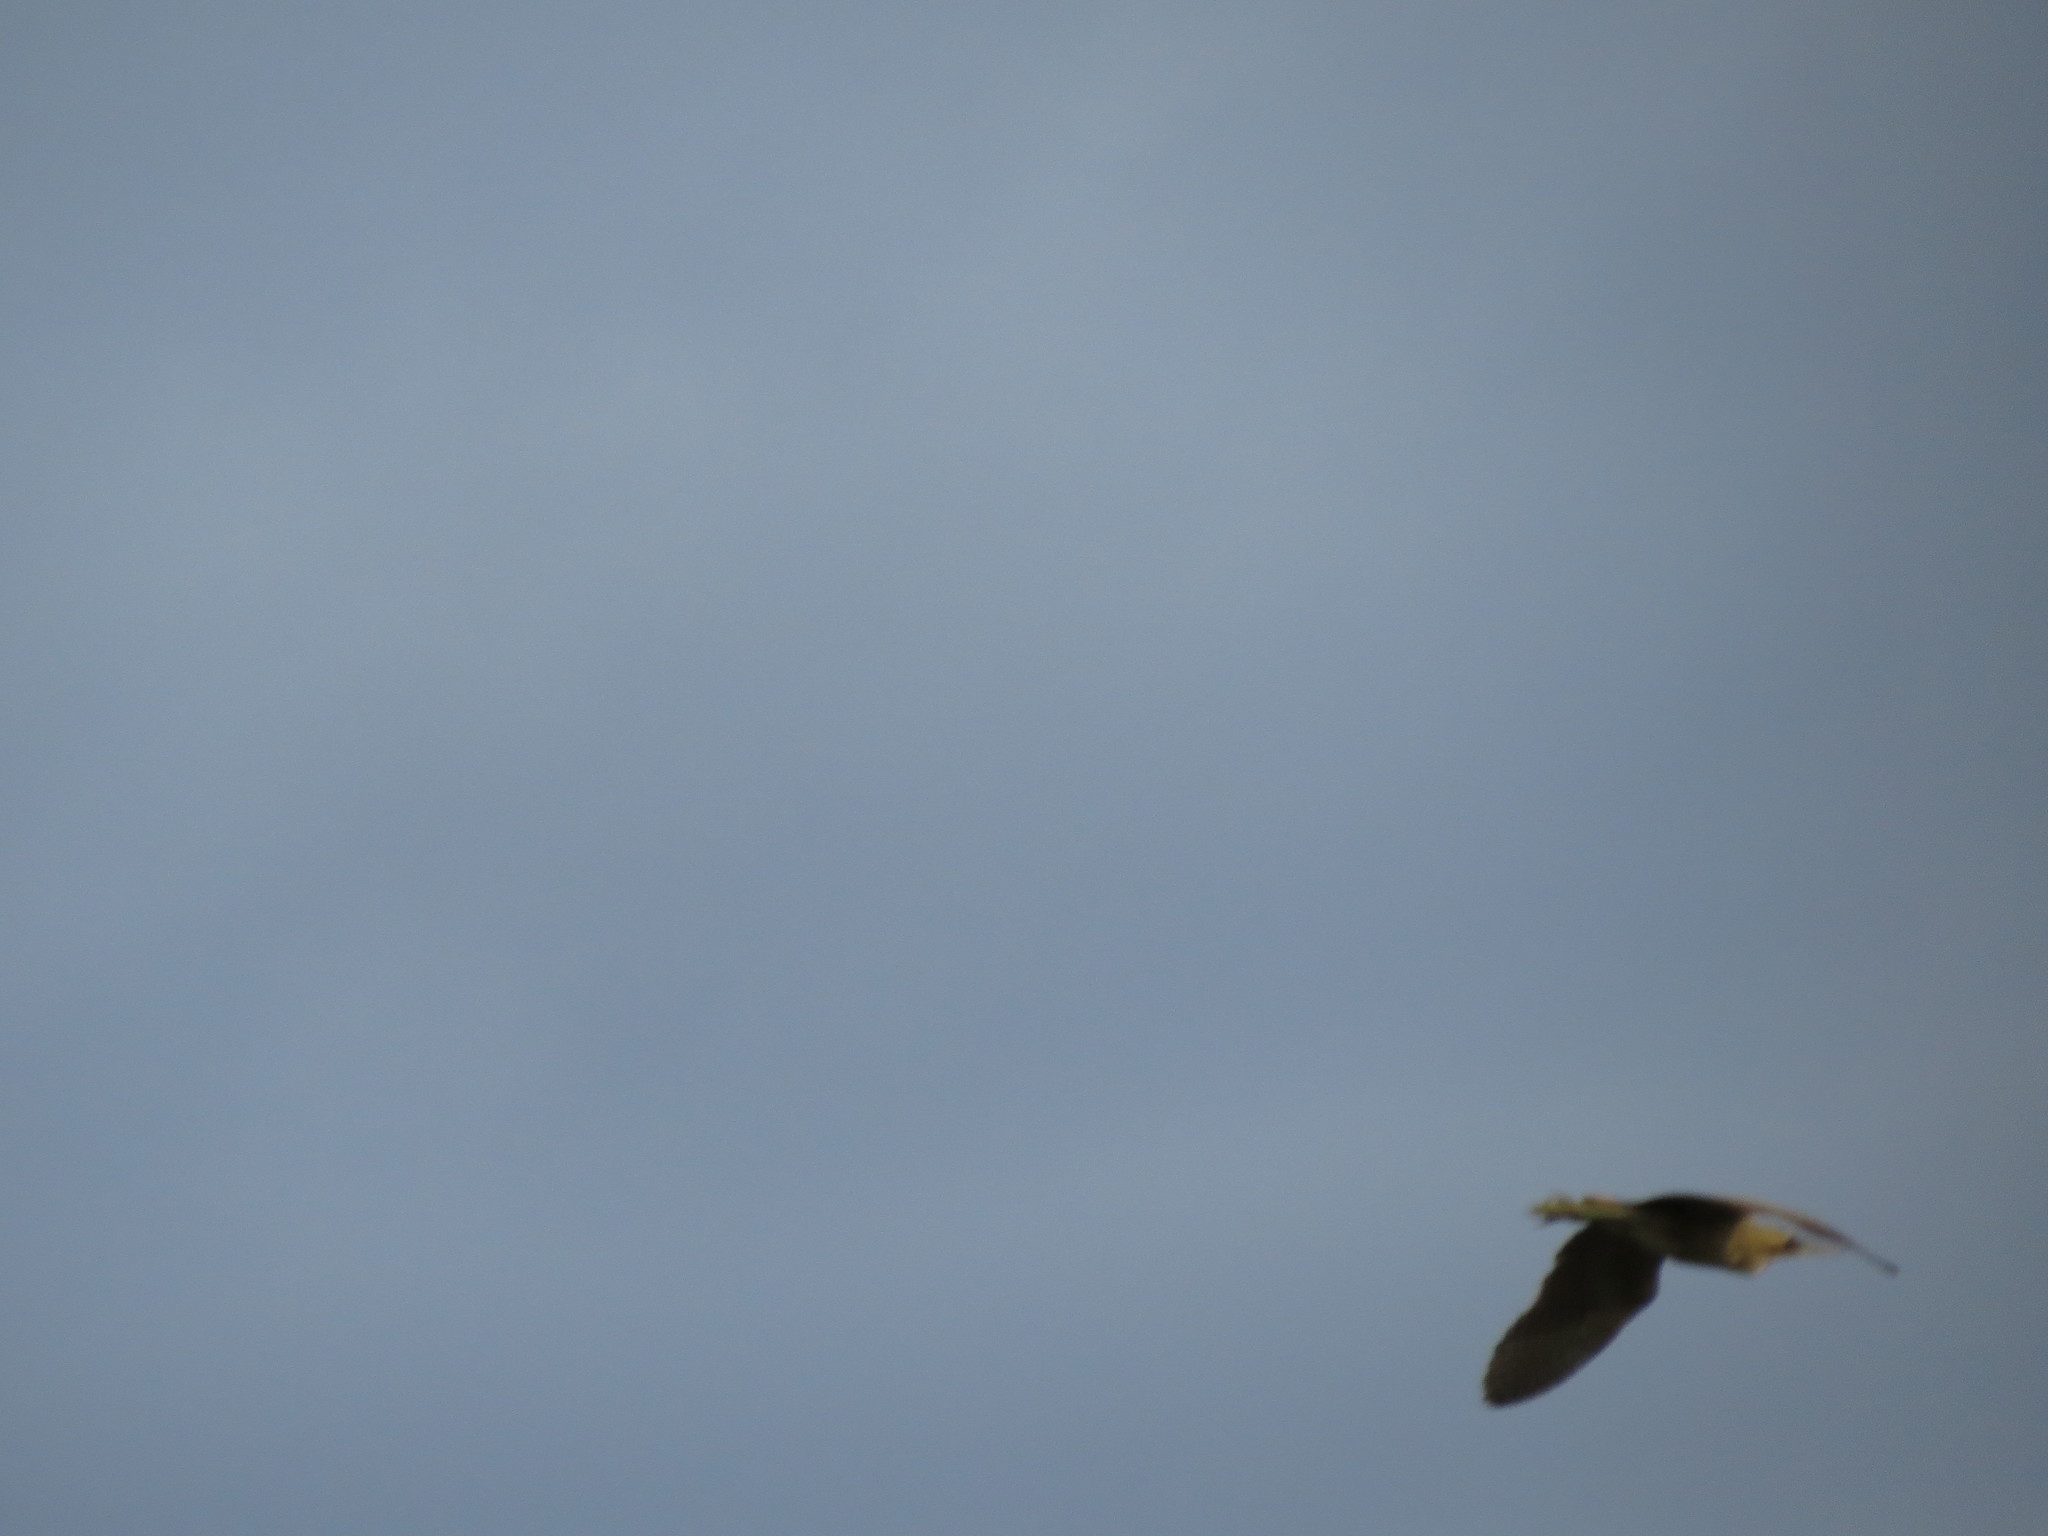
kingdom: Animalia
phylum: Chordata
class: Aves
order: Pelecaniformes
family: Ardeidae
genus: Botaurus
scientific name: Botaurus stellaris
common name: Eurasian bittern
